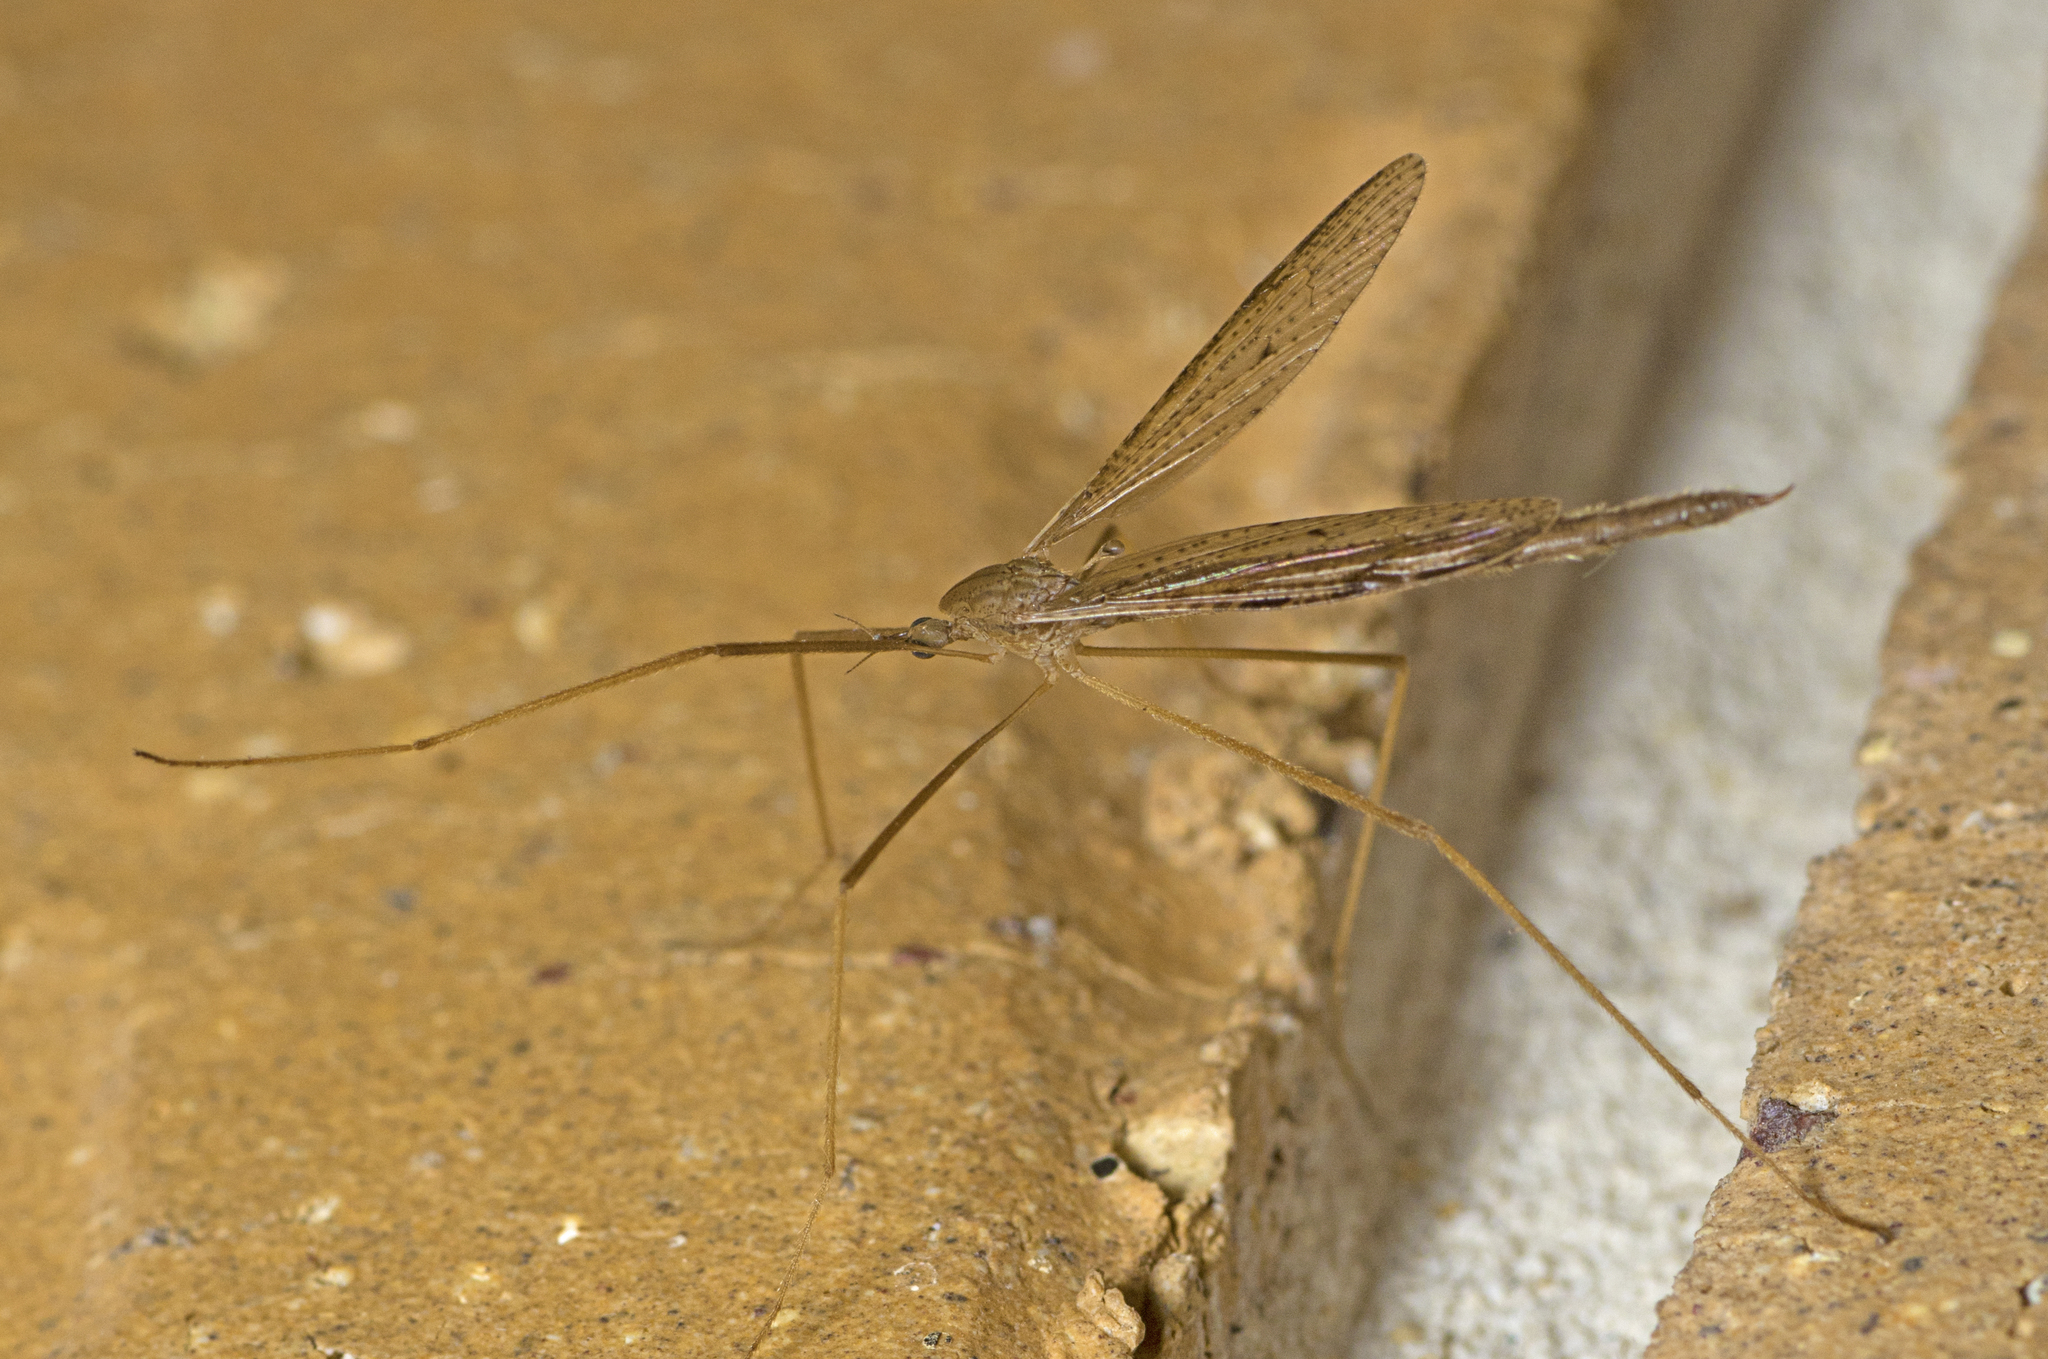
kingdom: Animalia
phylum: Arthropoda
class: Insecta
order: Diptera
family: Limoniidae
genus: Conosia
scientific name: Conosia irrorata
